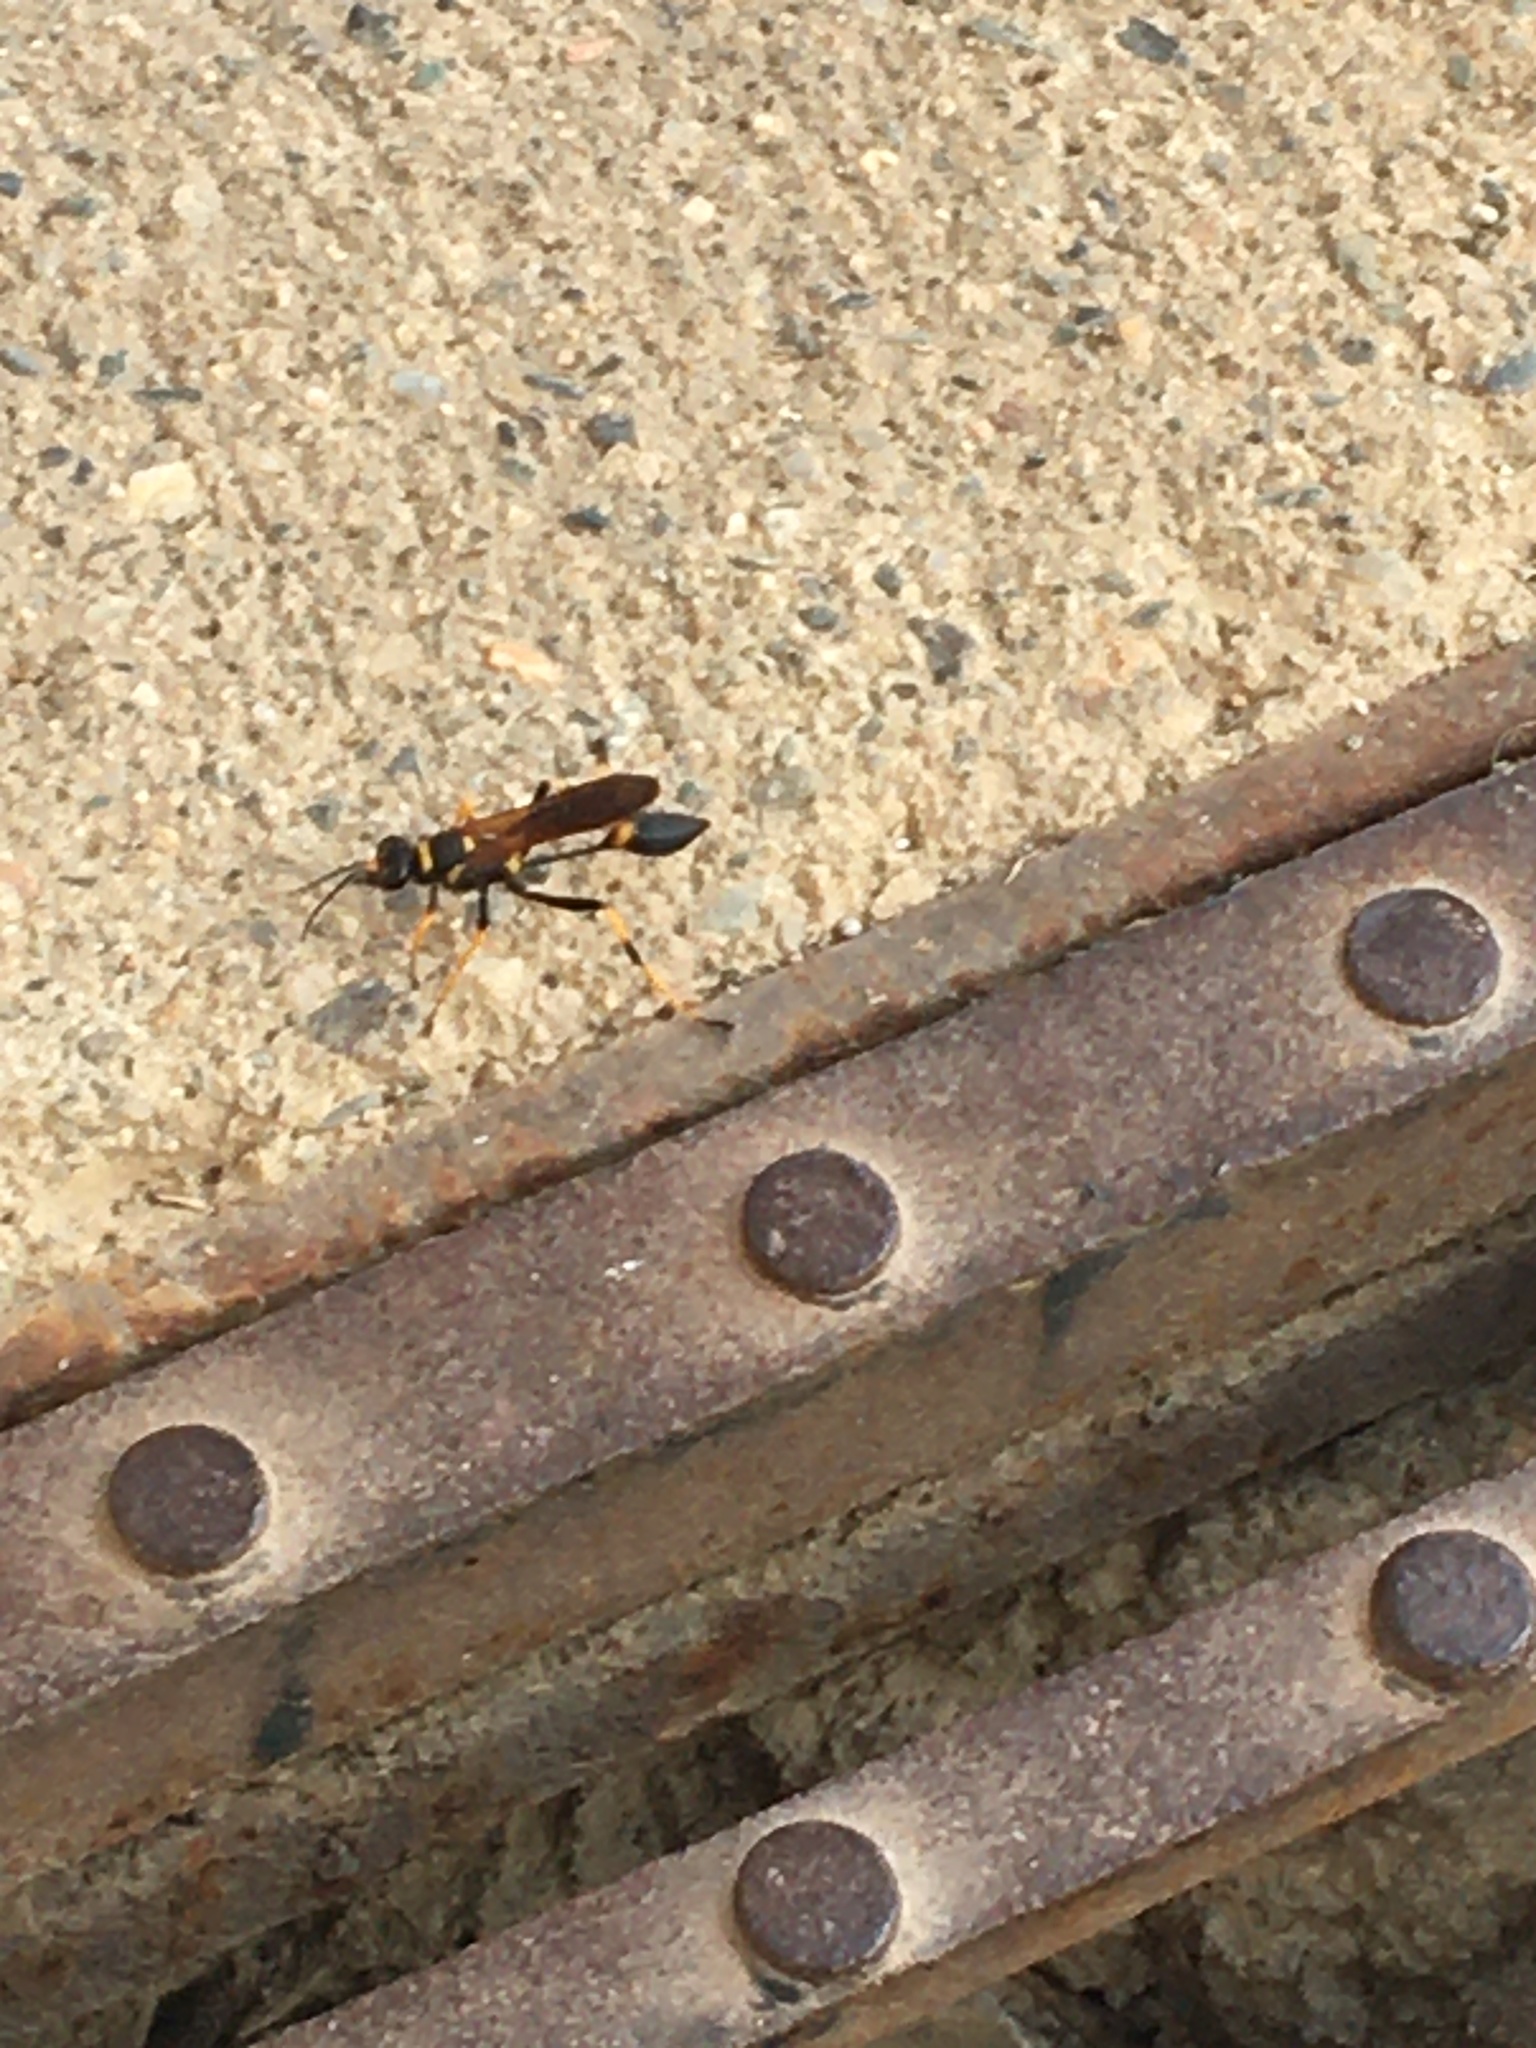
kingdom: Animalia
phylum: Arthropoda
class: Insecta
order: Hymenoptera
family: Sphecidae
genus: Sceliphron
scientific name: Sceliphron caementarium
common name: Mud dauber
